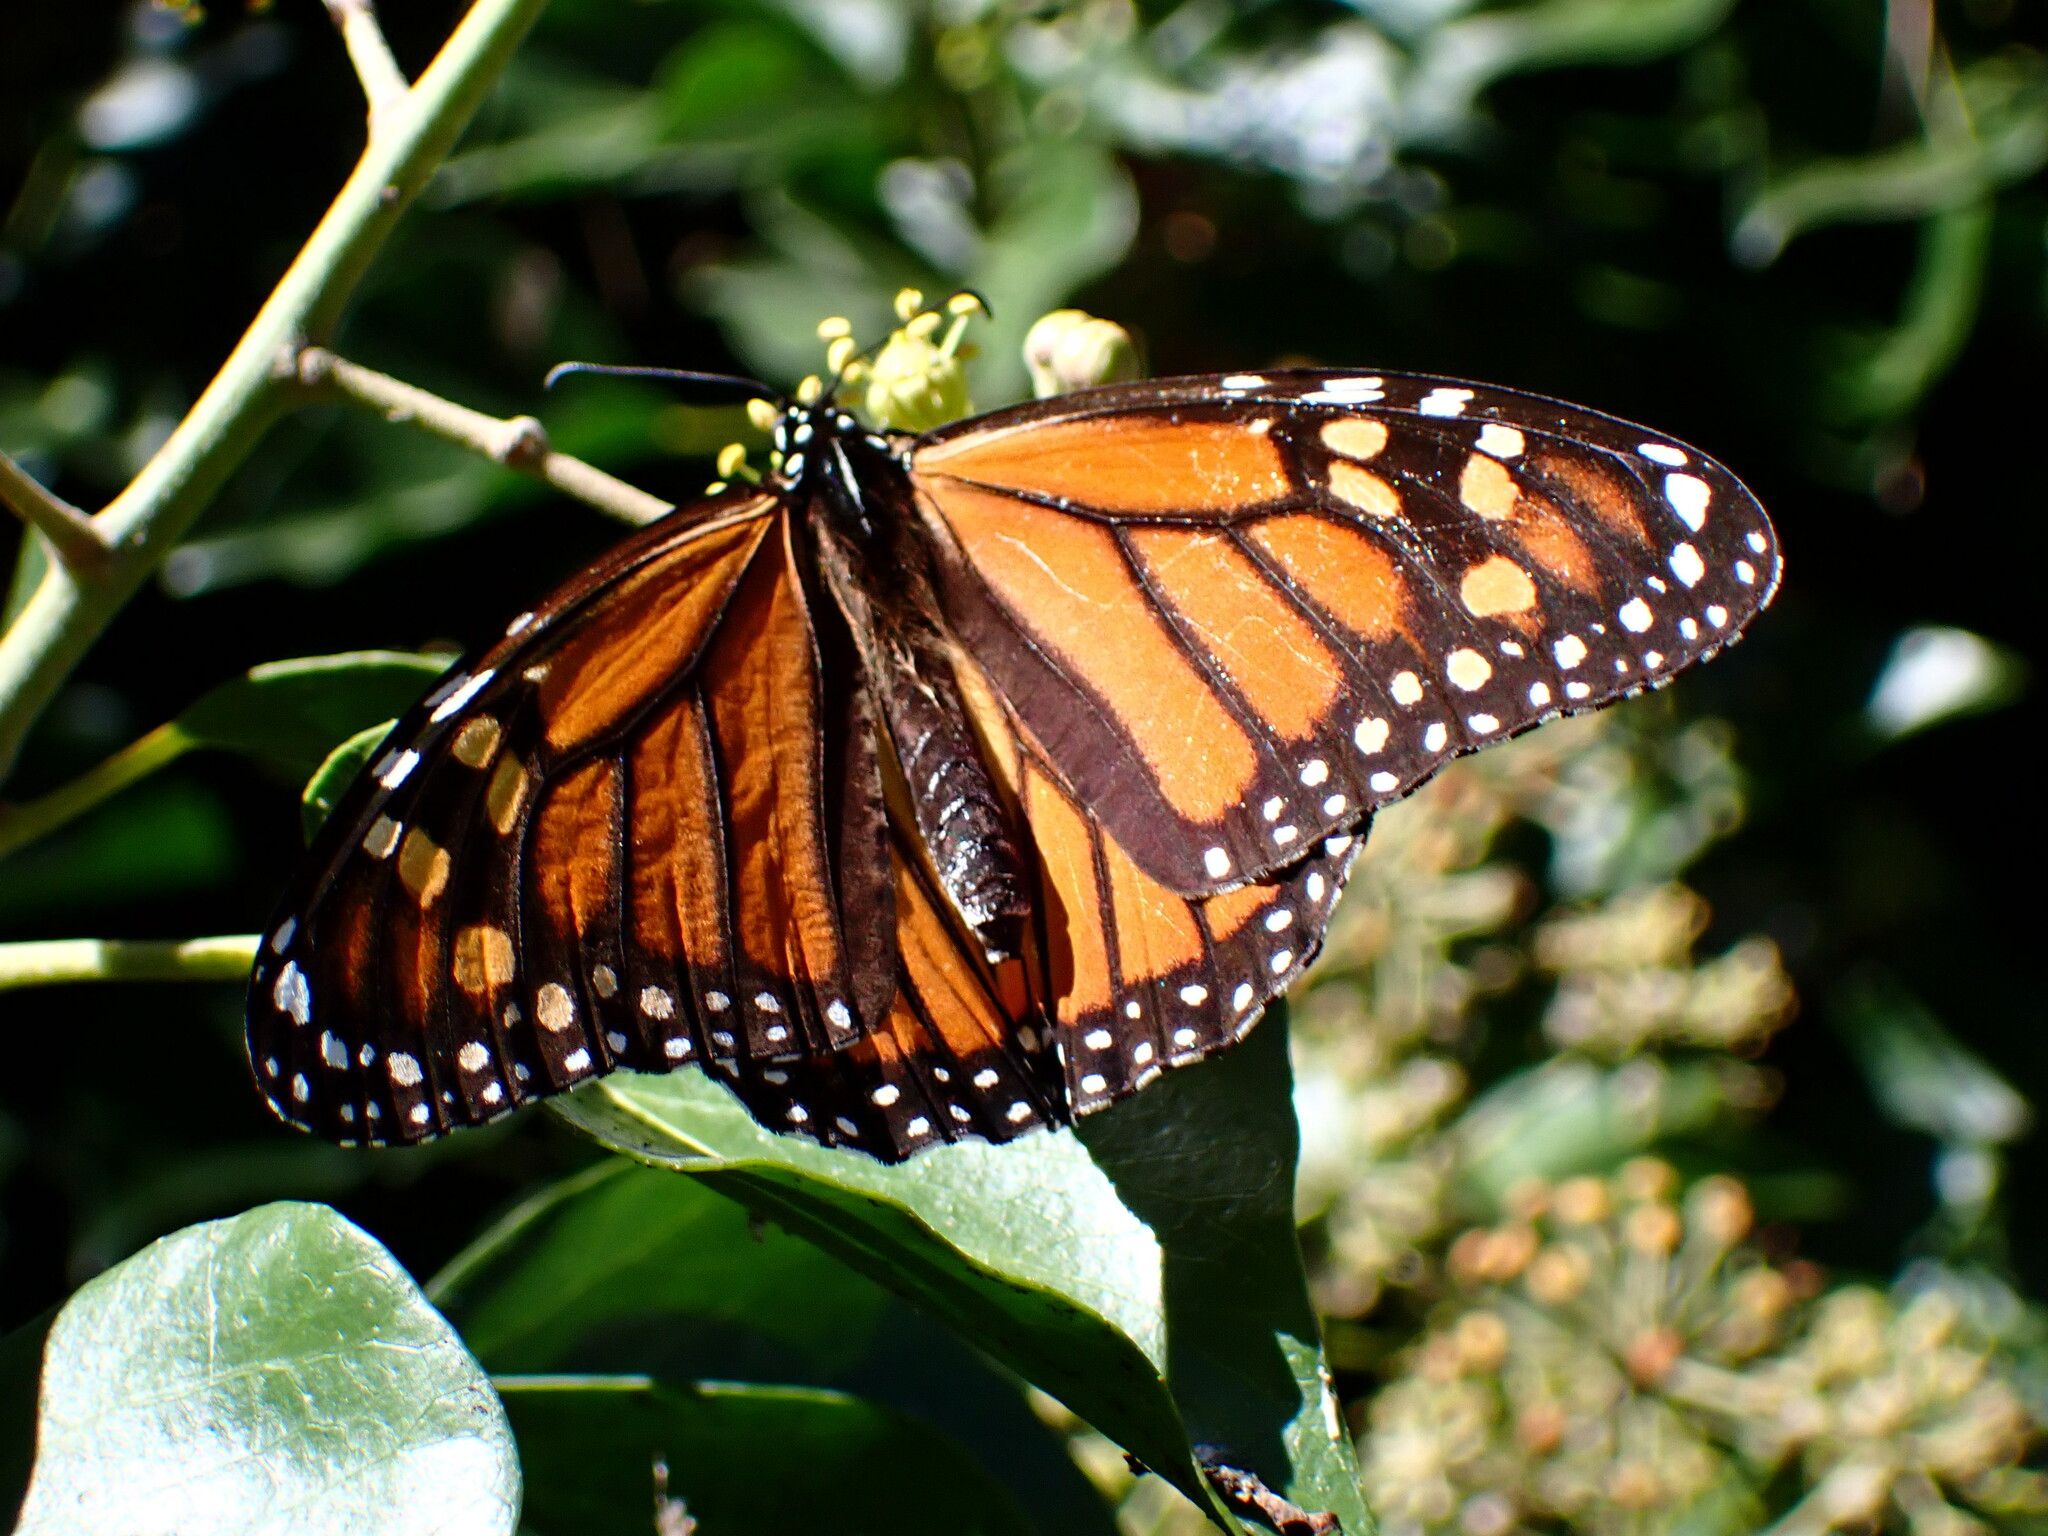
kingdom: Animalia
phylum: Arthropoda
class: Insecta
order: Lepidoptera
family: Nymphalidae
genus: Danaus
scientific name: Danaus plexippus
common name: Monarch
